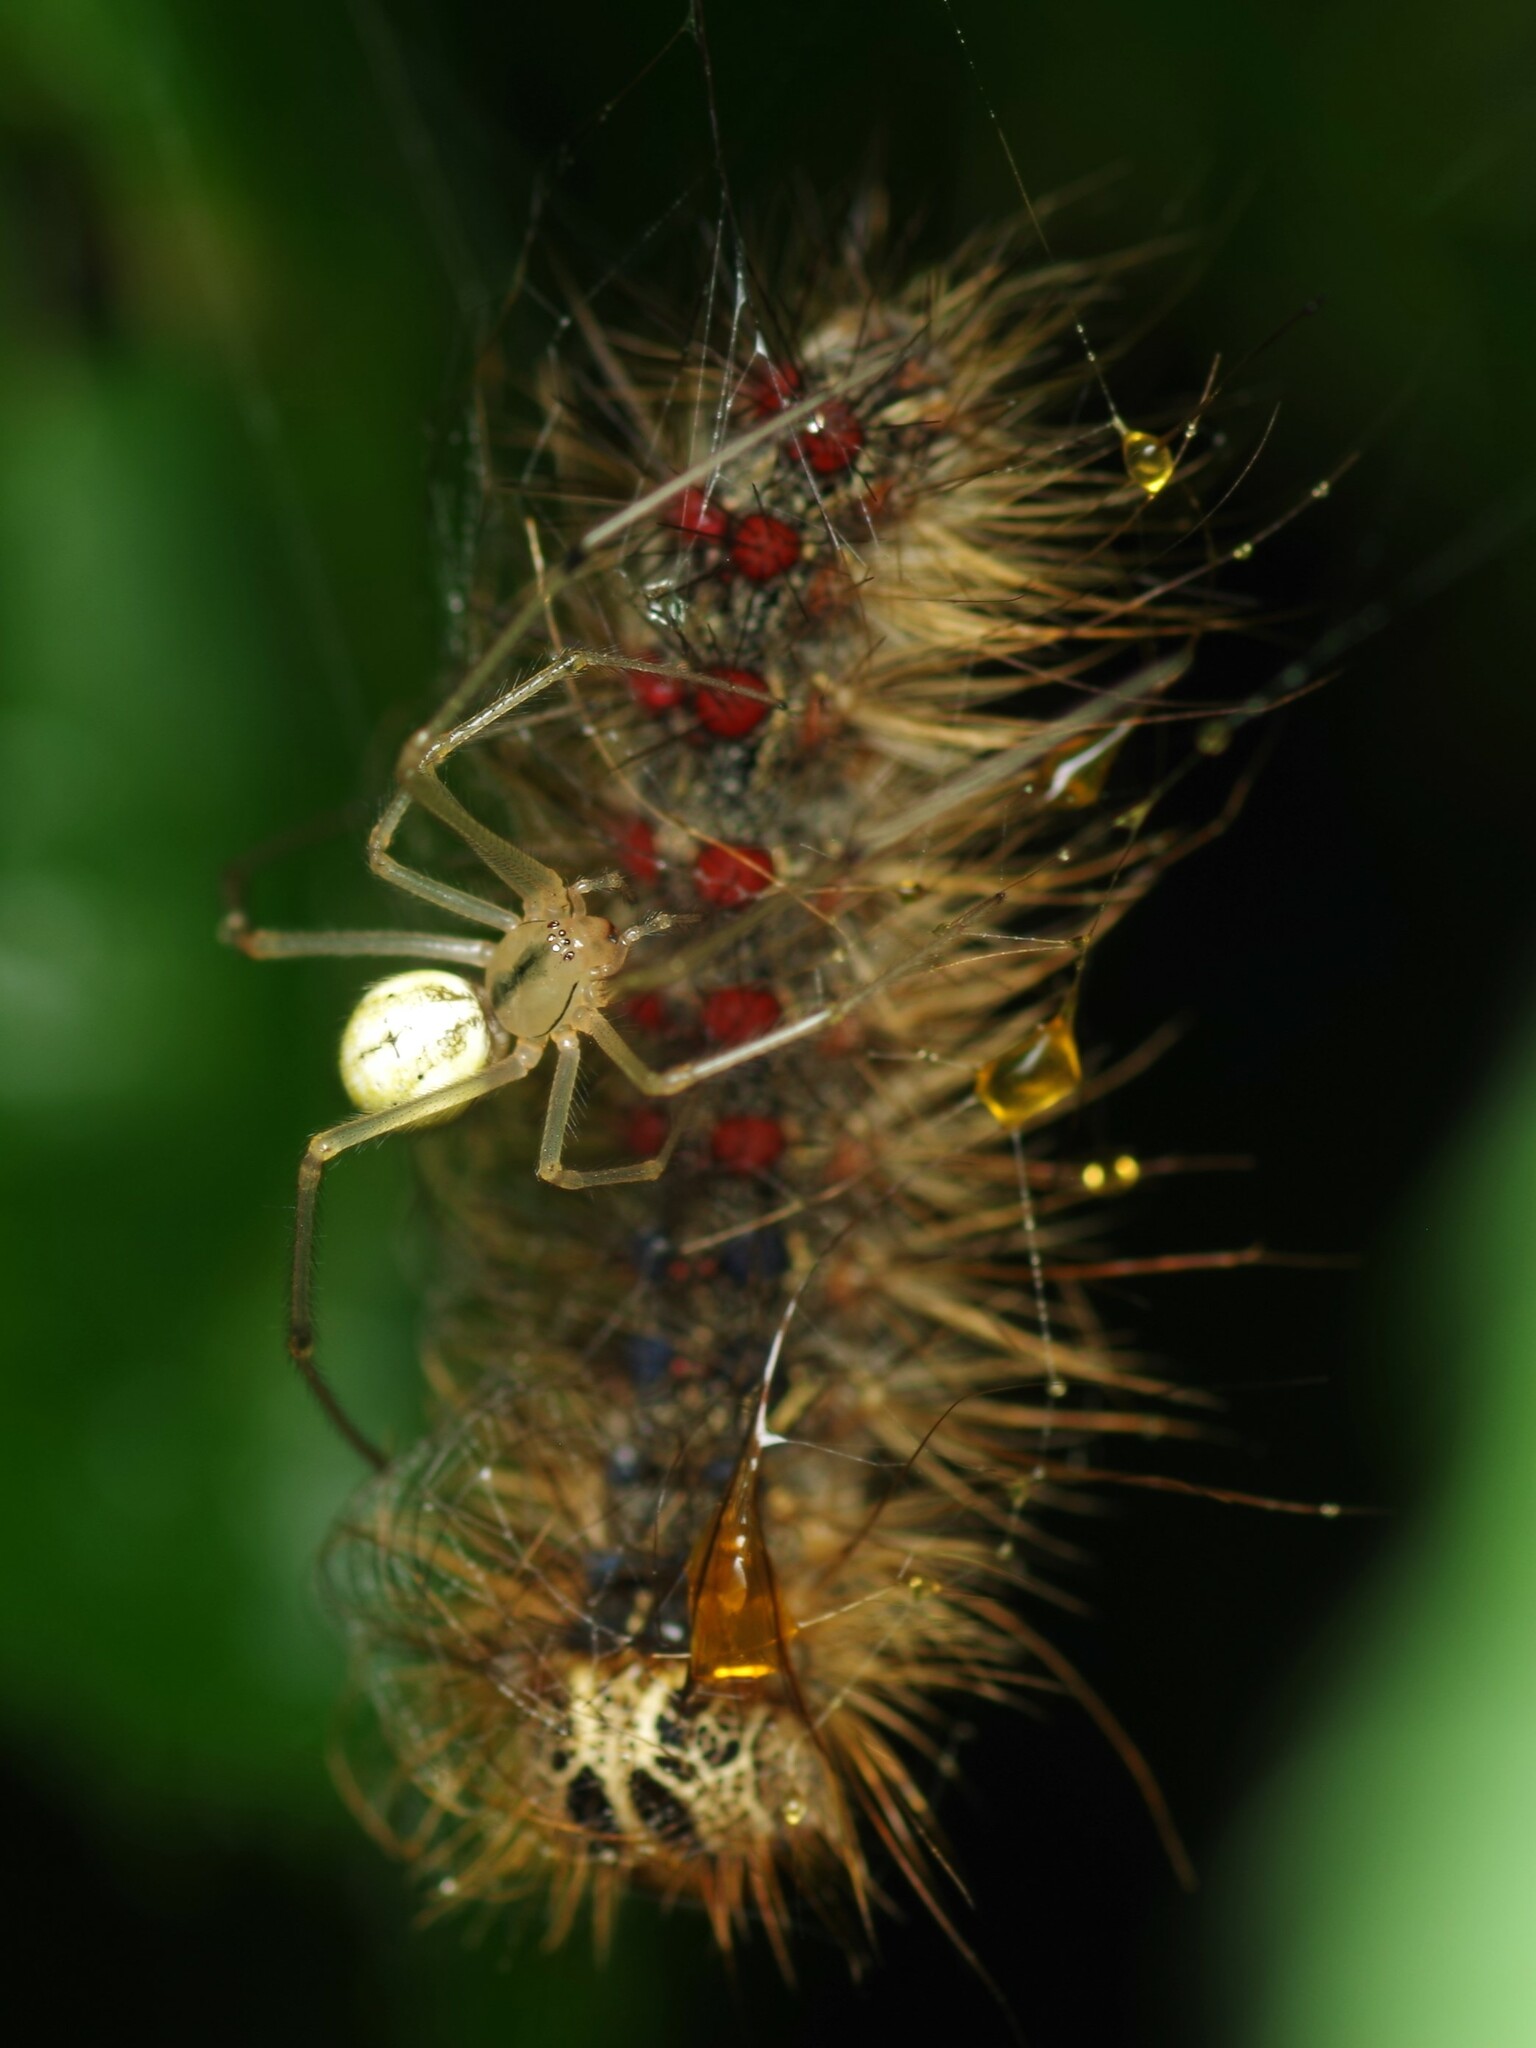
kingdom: Animalia
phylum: Arthropoda
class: Arachnida
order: Araneae
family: Theridiidae
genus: Enoplognatha
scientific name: Enoplognatha
